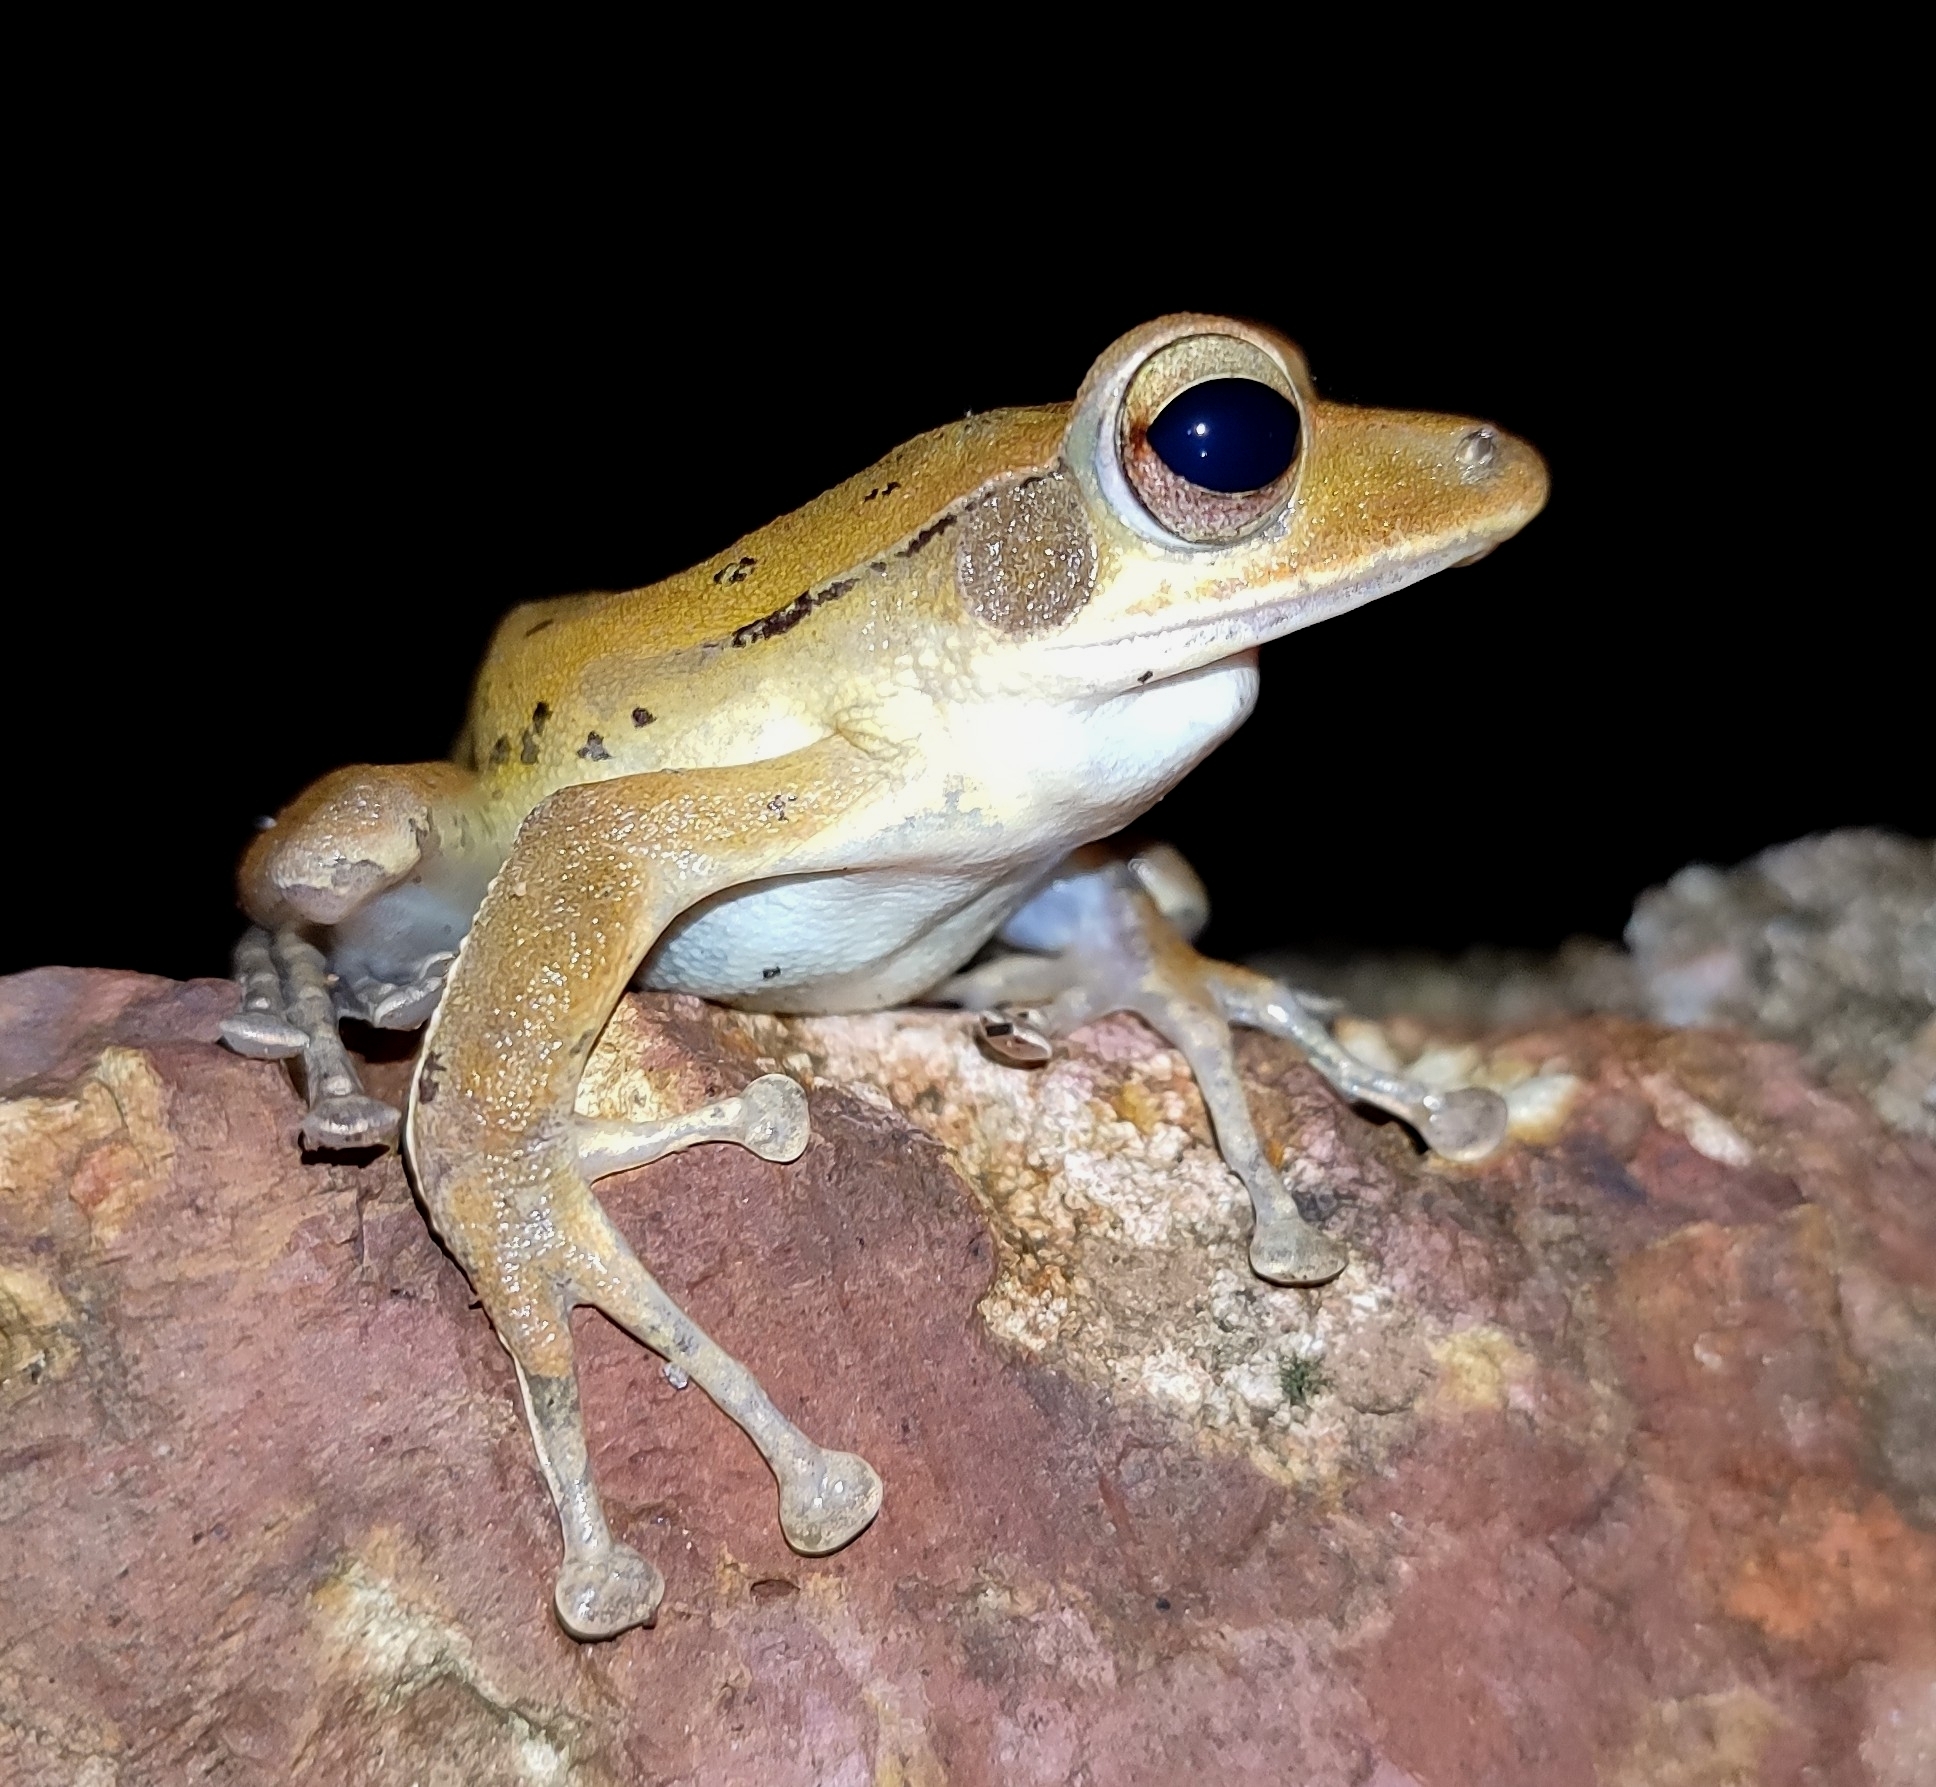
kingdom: Animalia
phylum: Chordata
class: Amphibia
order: Anura
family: Rhacophoridae
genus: Polypedates
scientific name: Polypedates maculatus
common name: Himalayan tree frog
